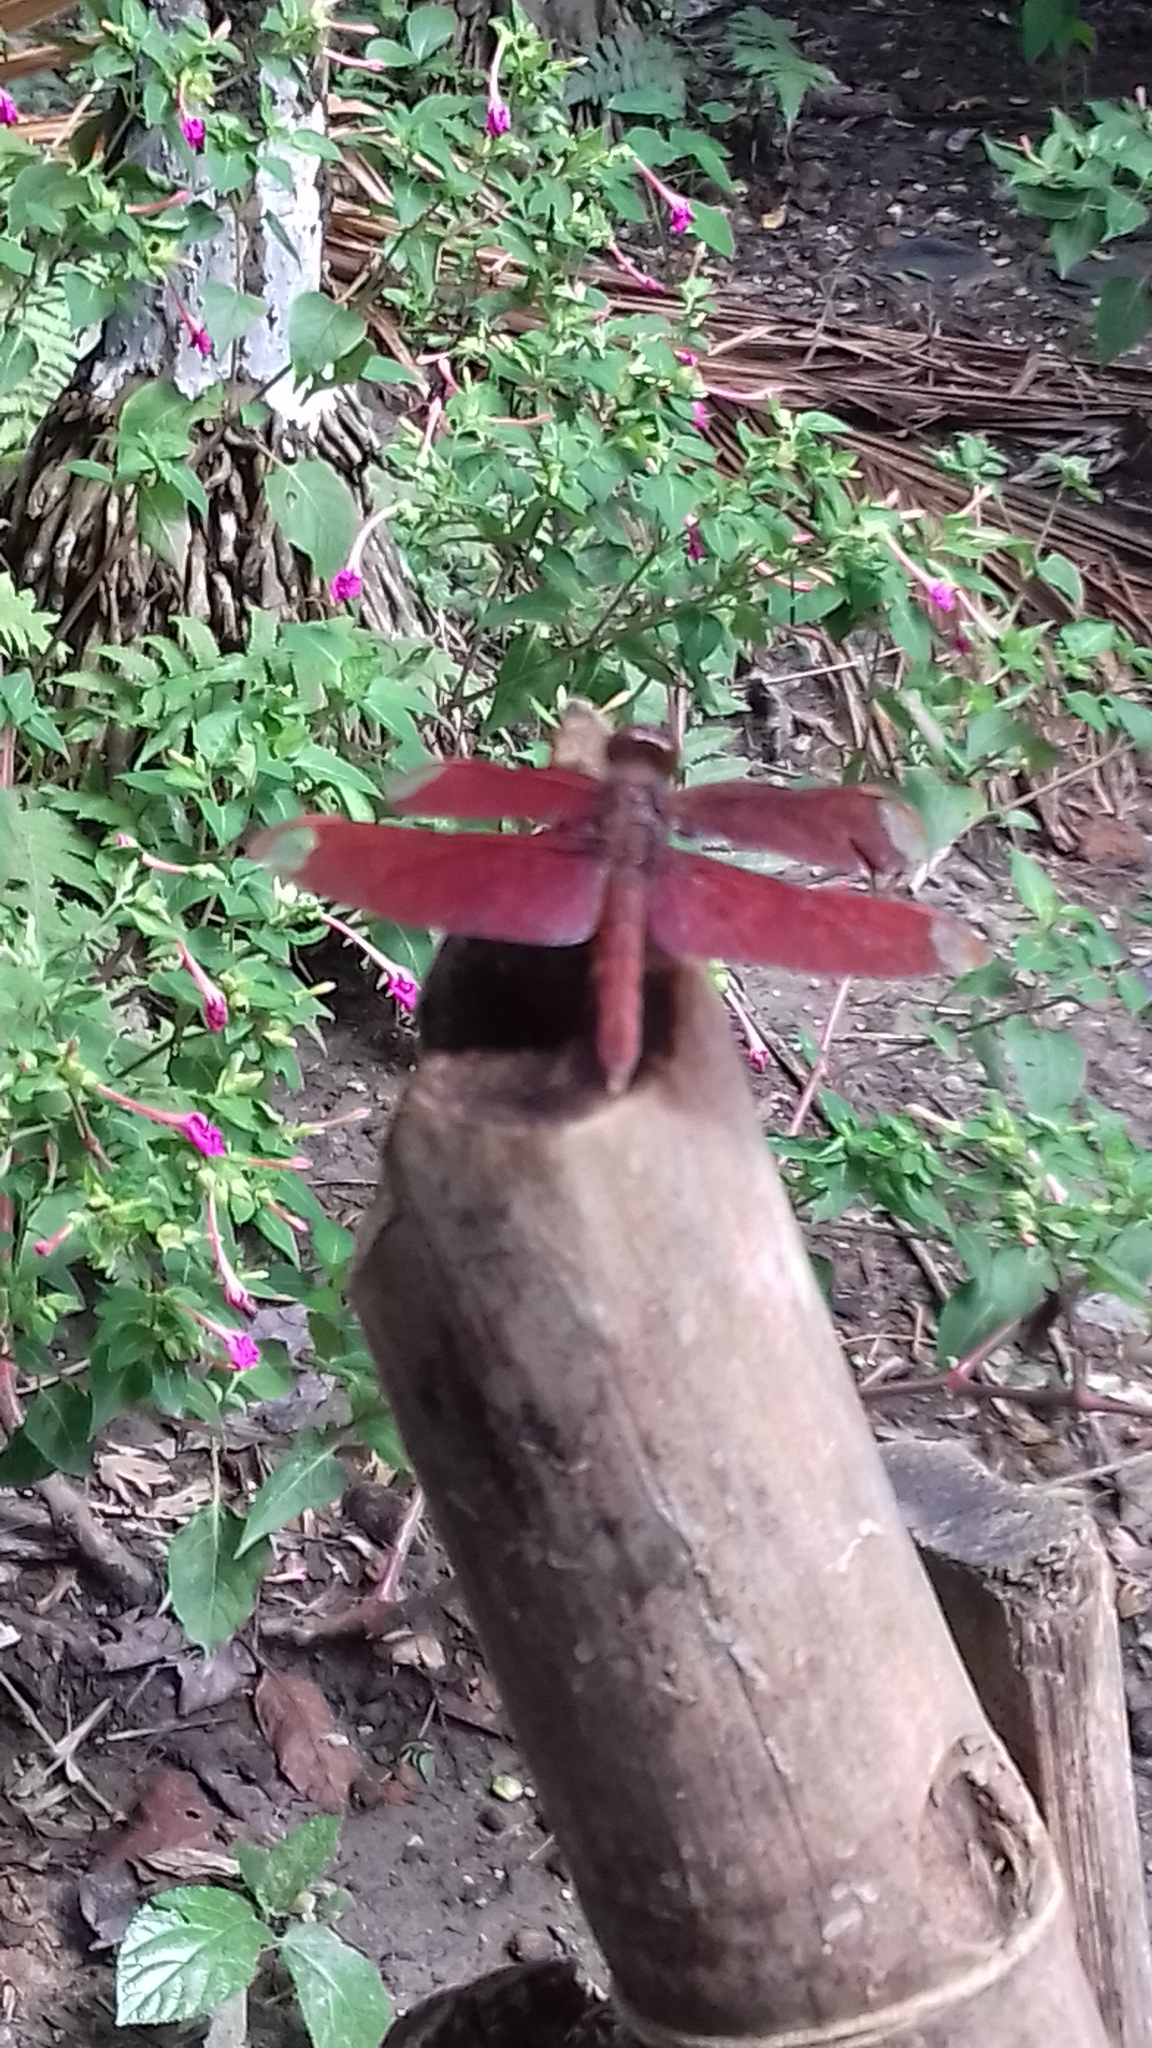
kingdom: Animalia
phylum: Arthropoda
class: Insecta
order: Odonata
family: Libellulidae
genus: Neurothemis
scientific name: Neurothemis fulvia
